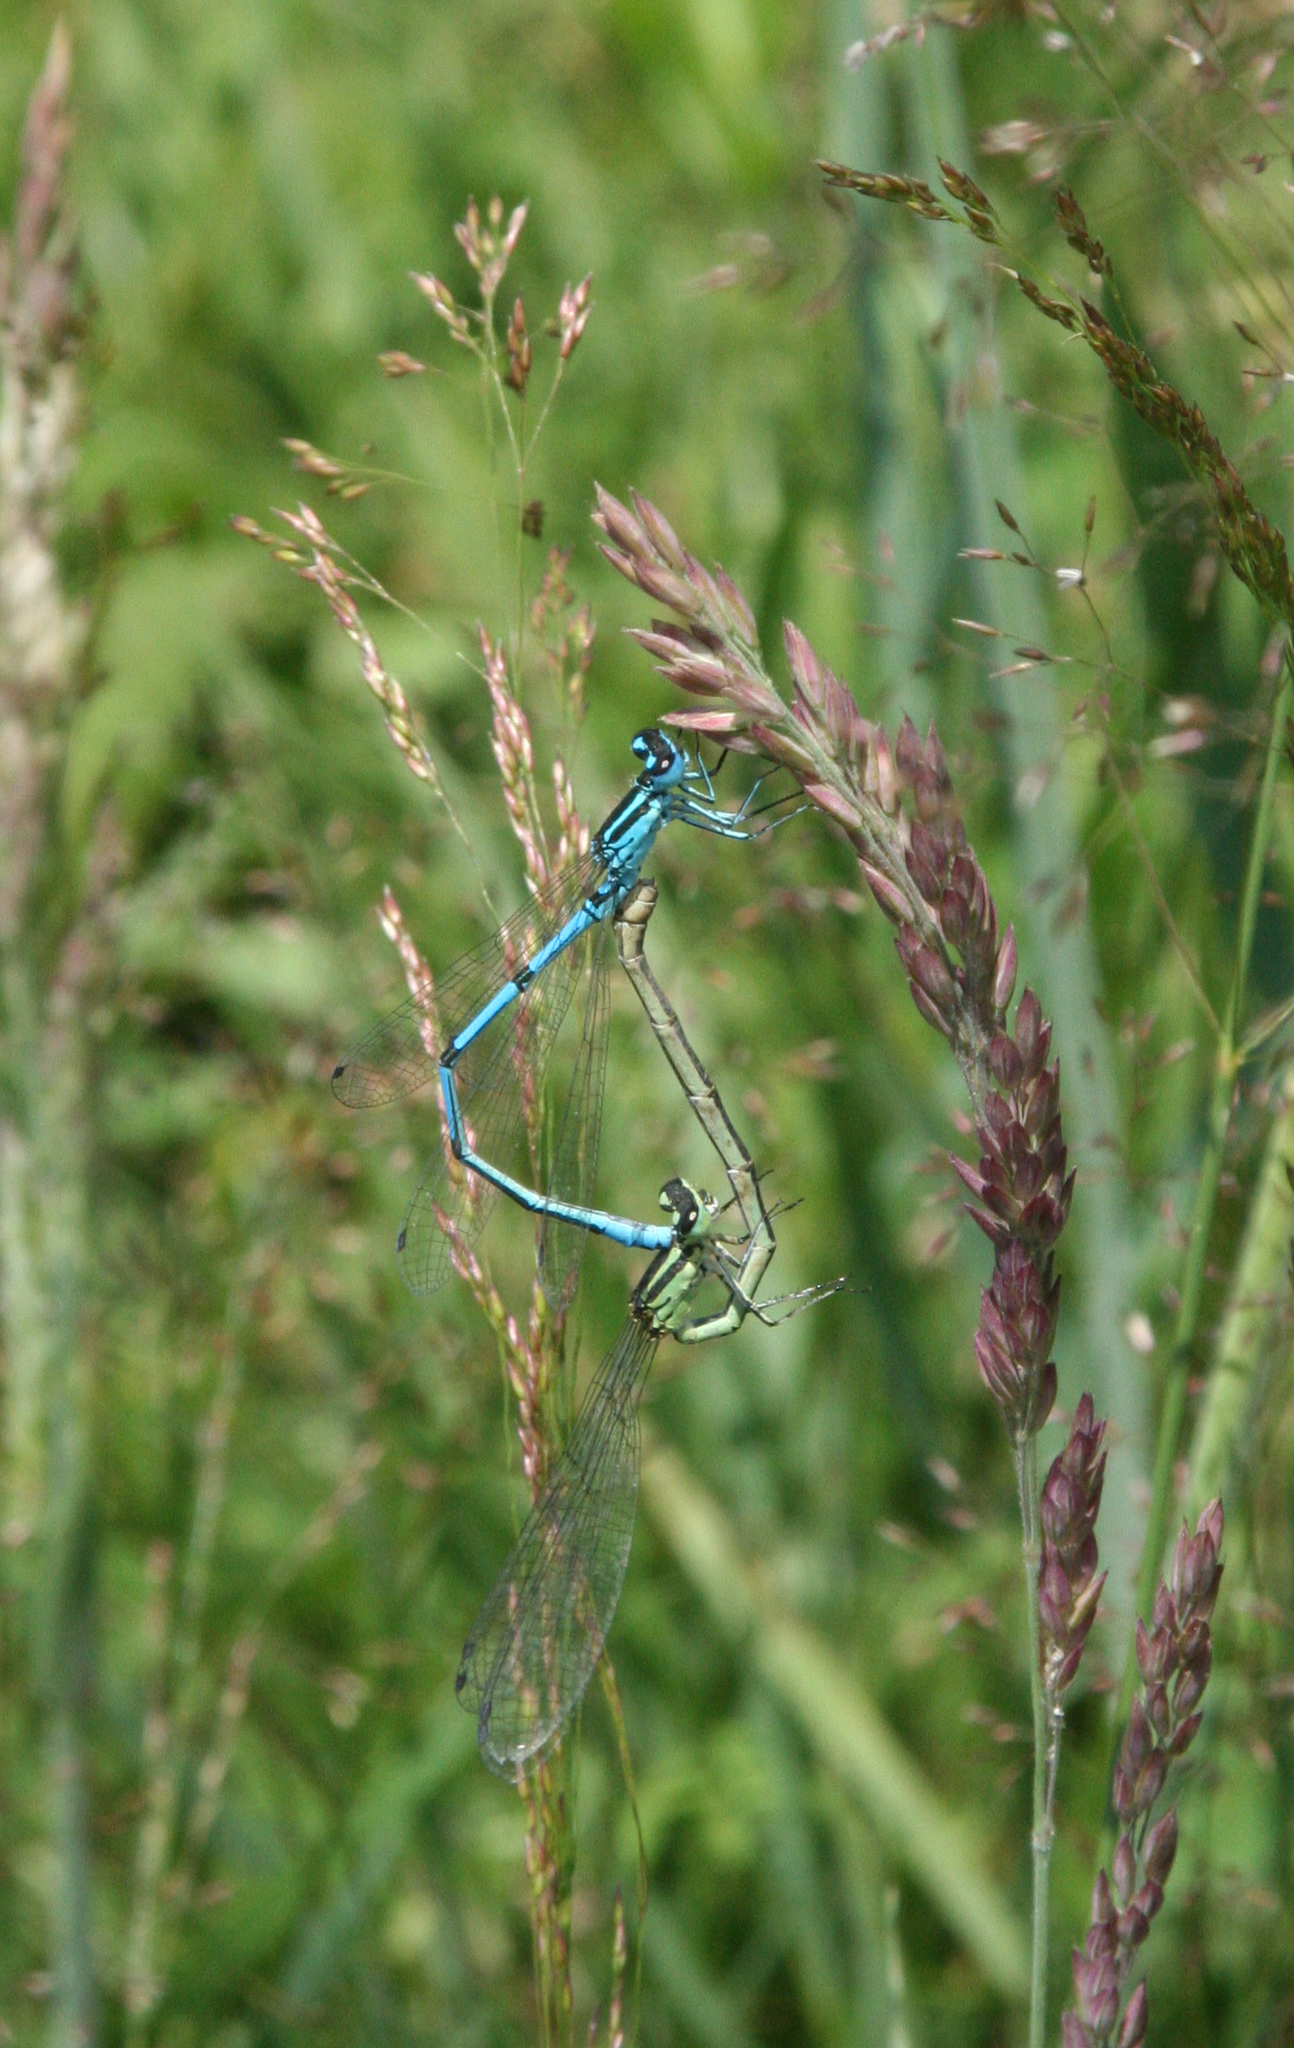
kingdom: Animalia
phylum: Arthropoda
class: Insecta
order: Odonata
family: Coenagrionidae
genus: Coenagrion
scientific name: Coenagrion puella
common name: Azure damselfly
